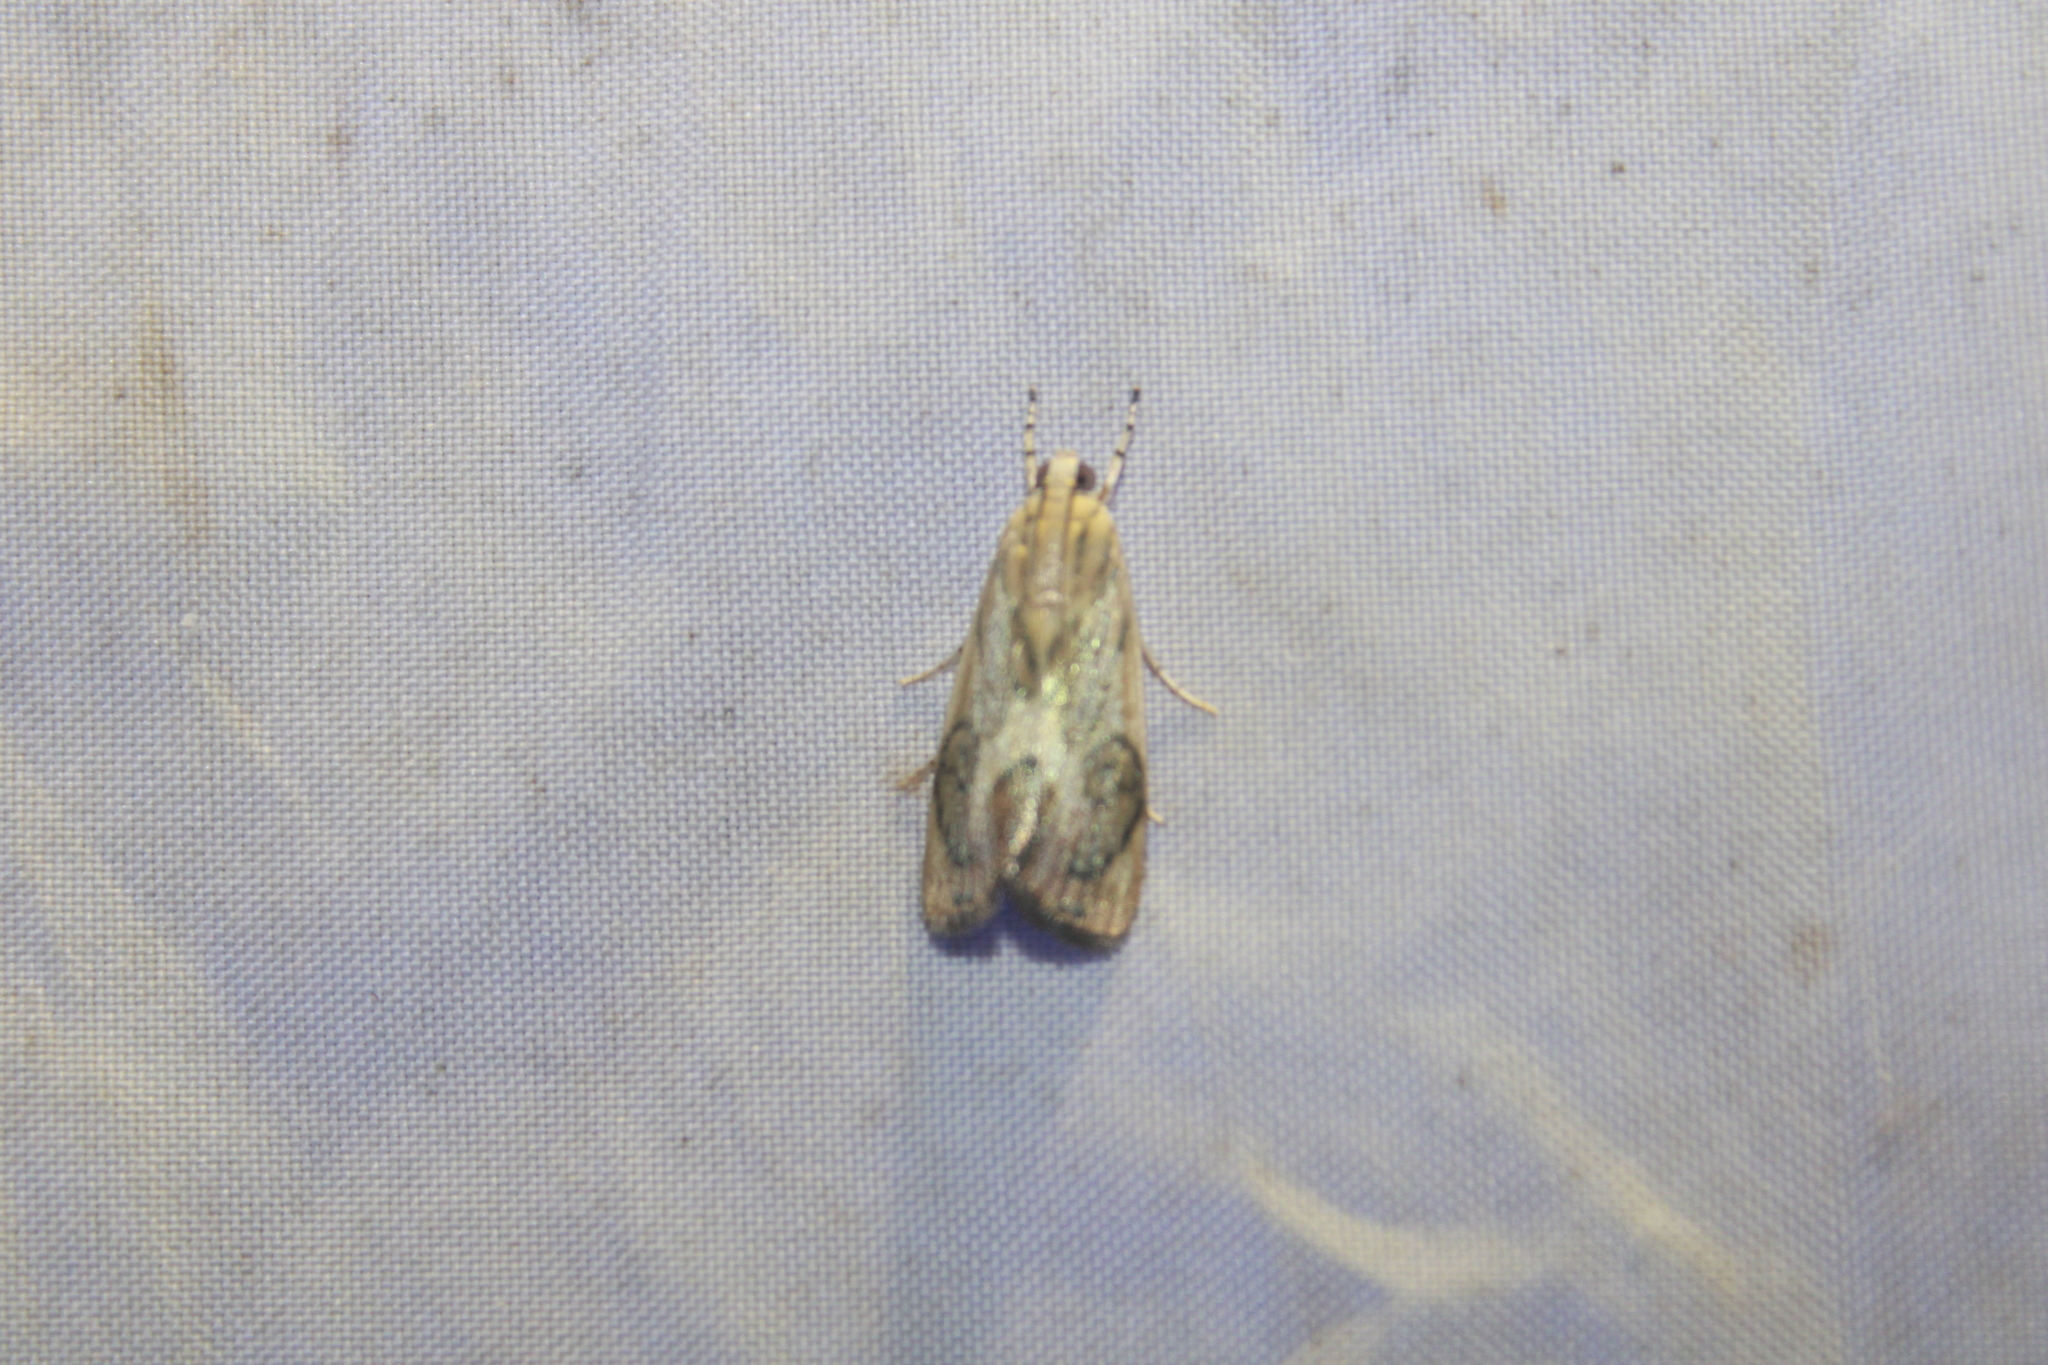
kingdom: Animalia
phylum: Arthropoda
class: Insecta
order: Lepidoptera
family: Crambidae
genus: Dichogama
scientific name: Dichogama redtenbacheri
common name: Carper-leaf webworm moth
